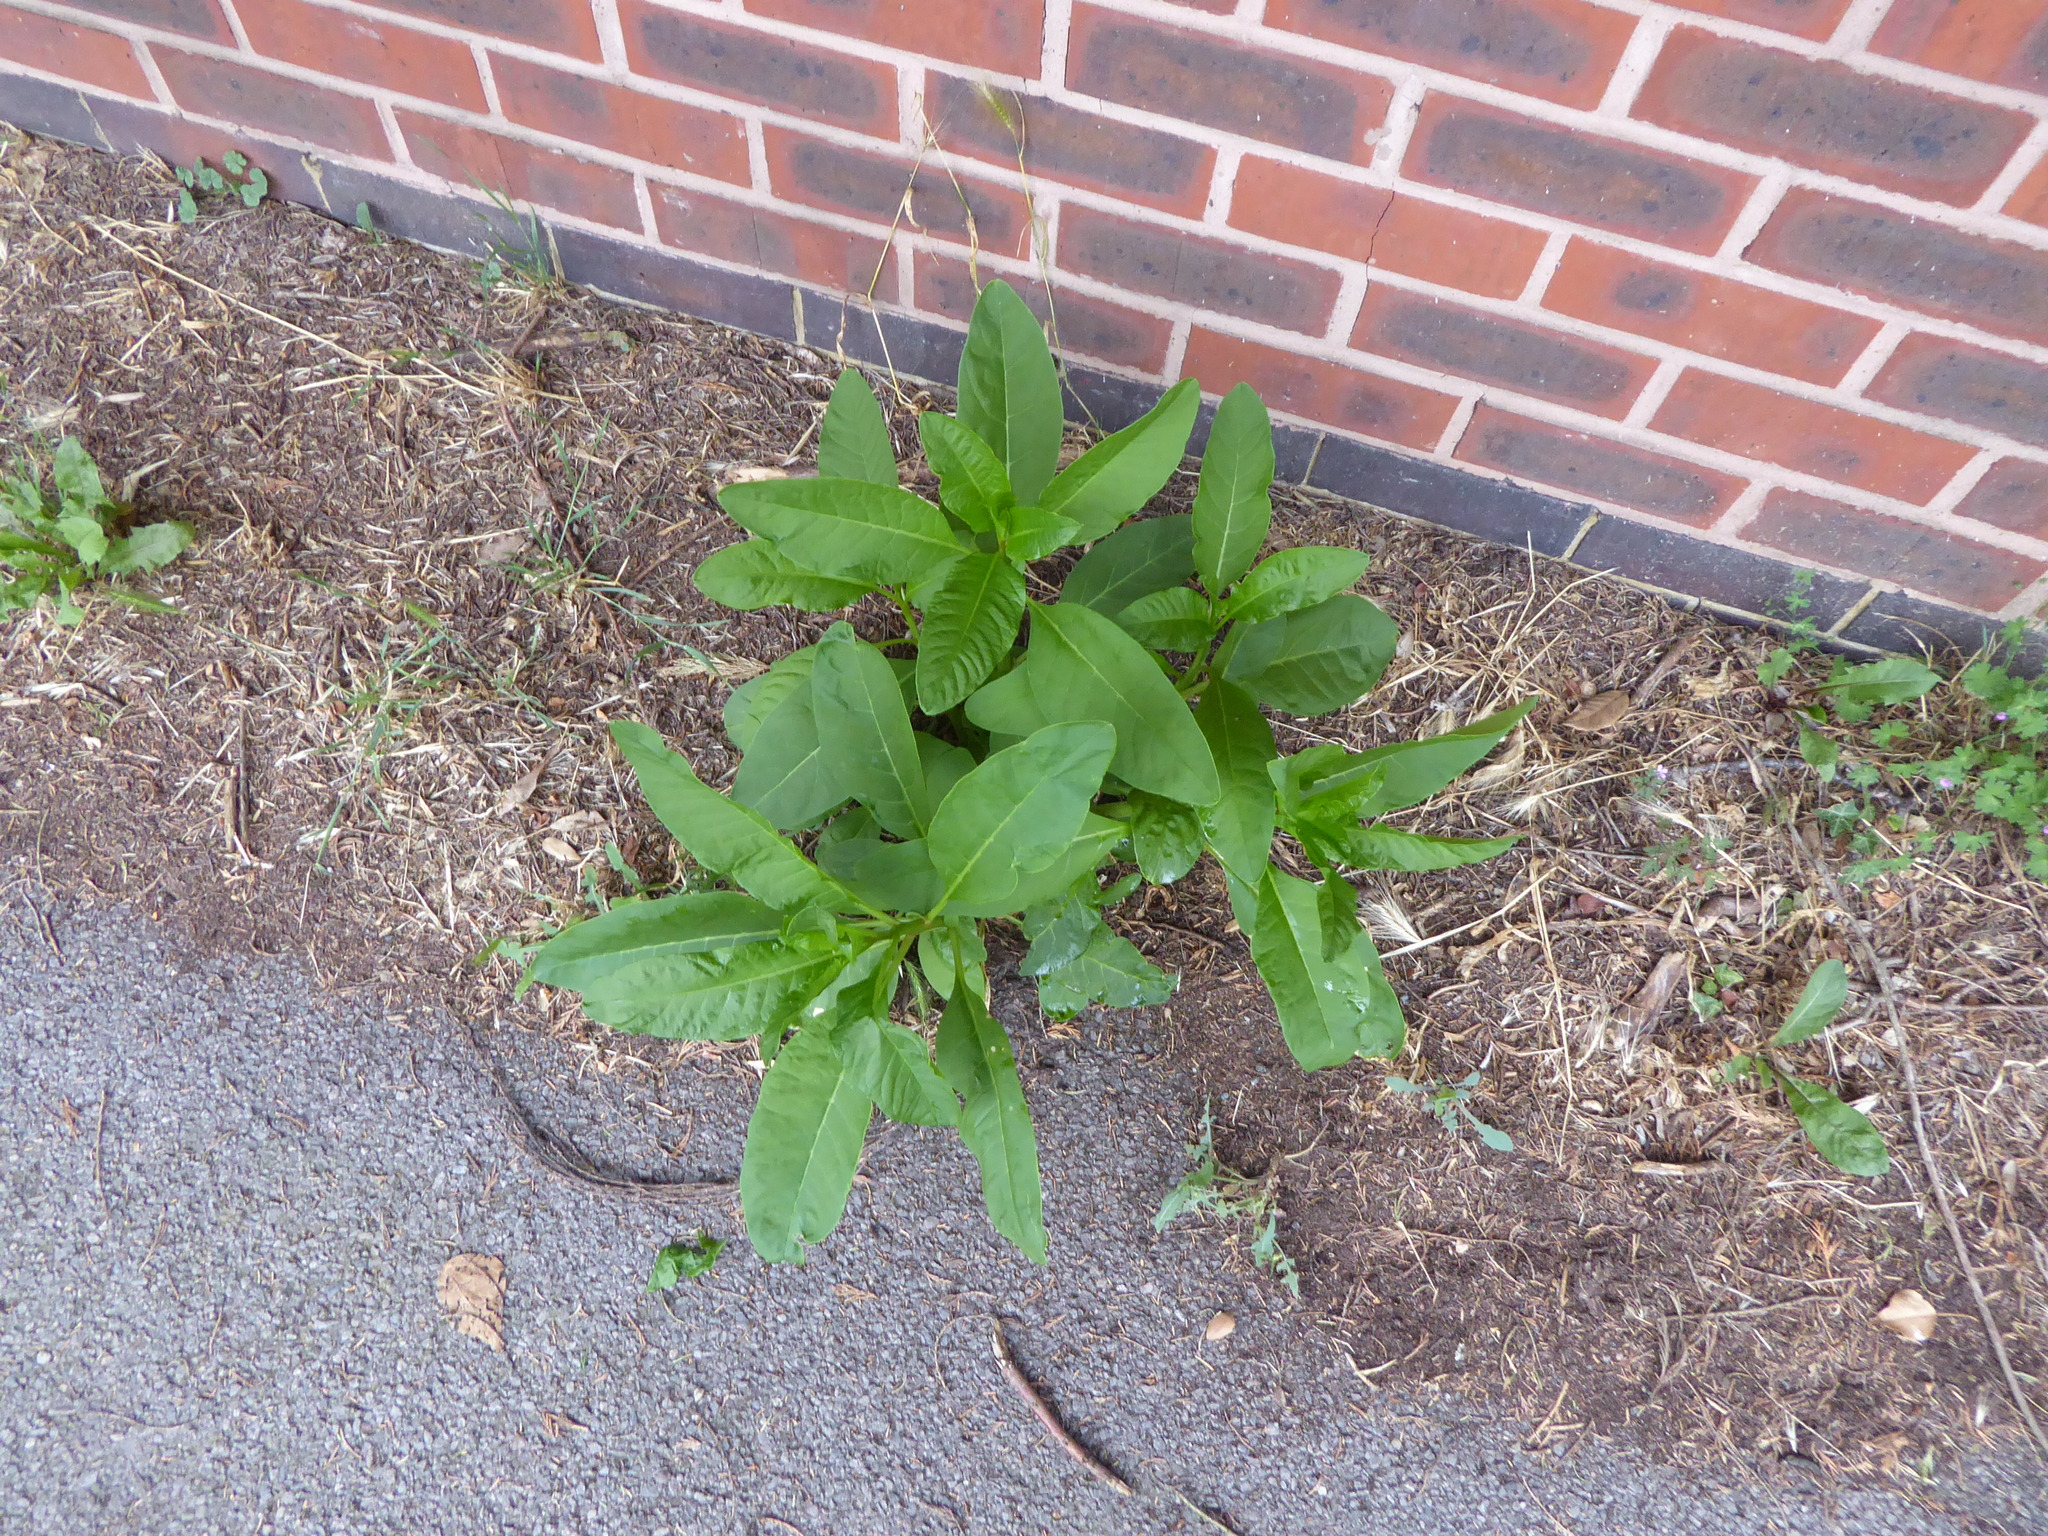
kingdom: Plantae
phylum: Tracheophyta
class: Magnoliopsida
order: Caryophyllales
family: Phytolaccaceae
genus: Phytolacca
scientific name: Phytolacca americana
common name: American pokeweed
